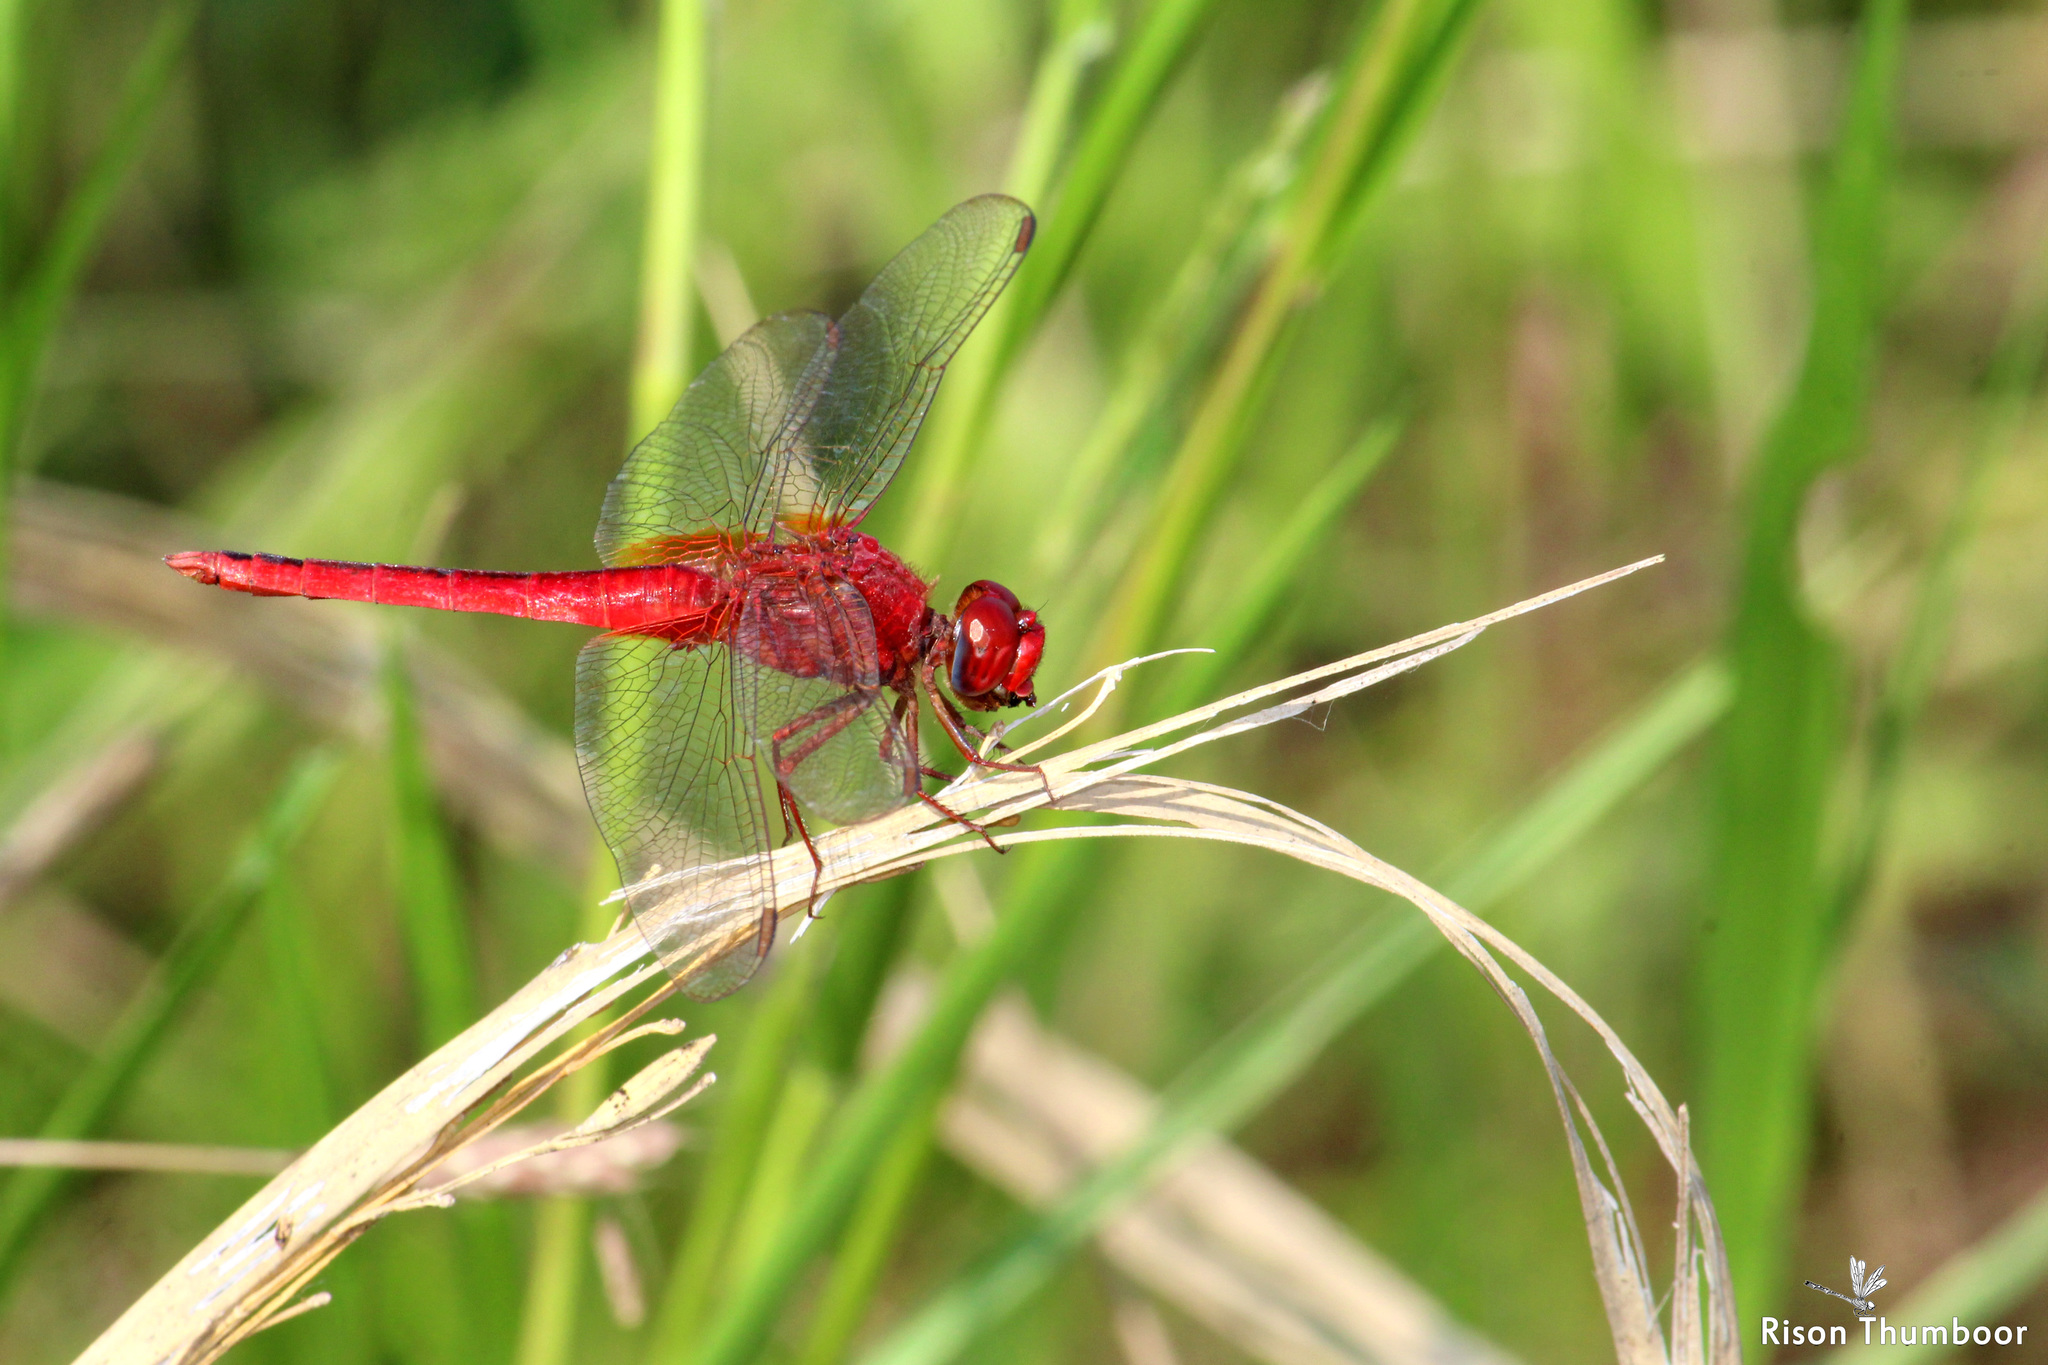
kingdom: Animalia
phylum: Arthropoda
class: Insecta
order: Odonata
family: Libellulidae
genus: Crocothemis
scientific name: Crocothemis servilia
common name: Scarlet skimmer
